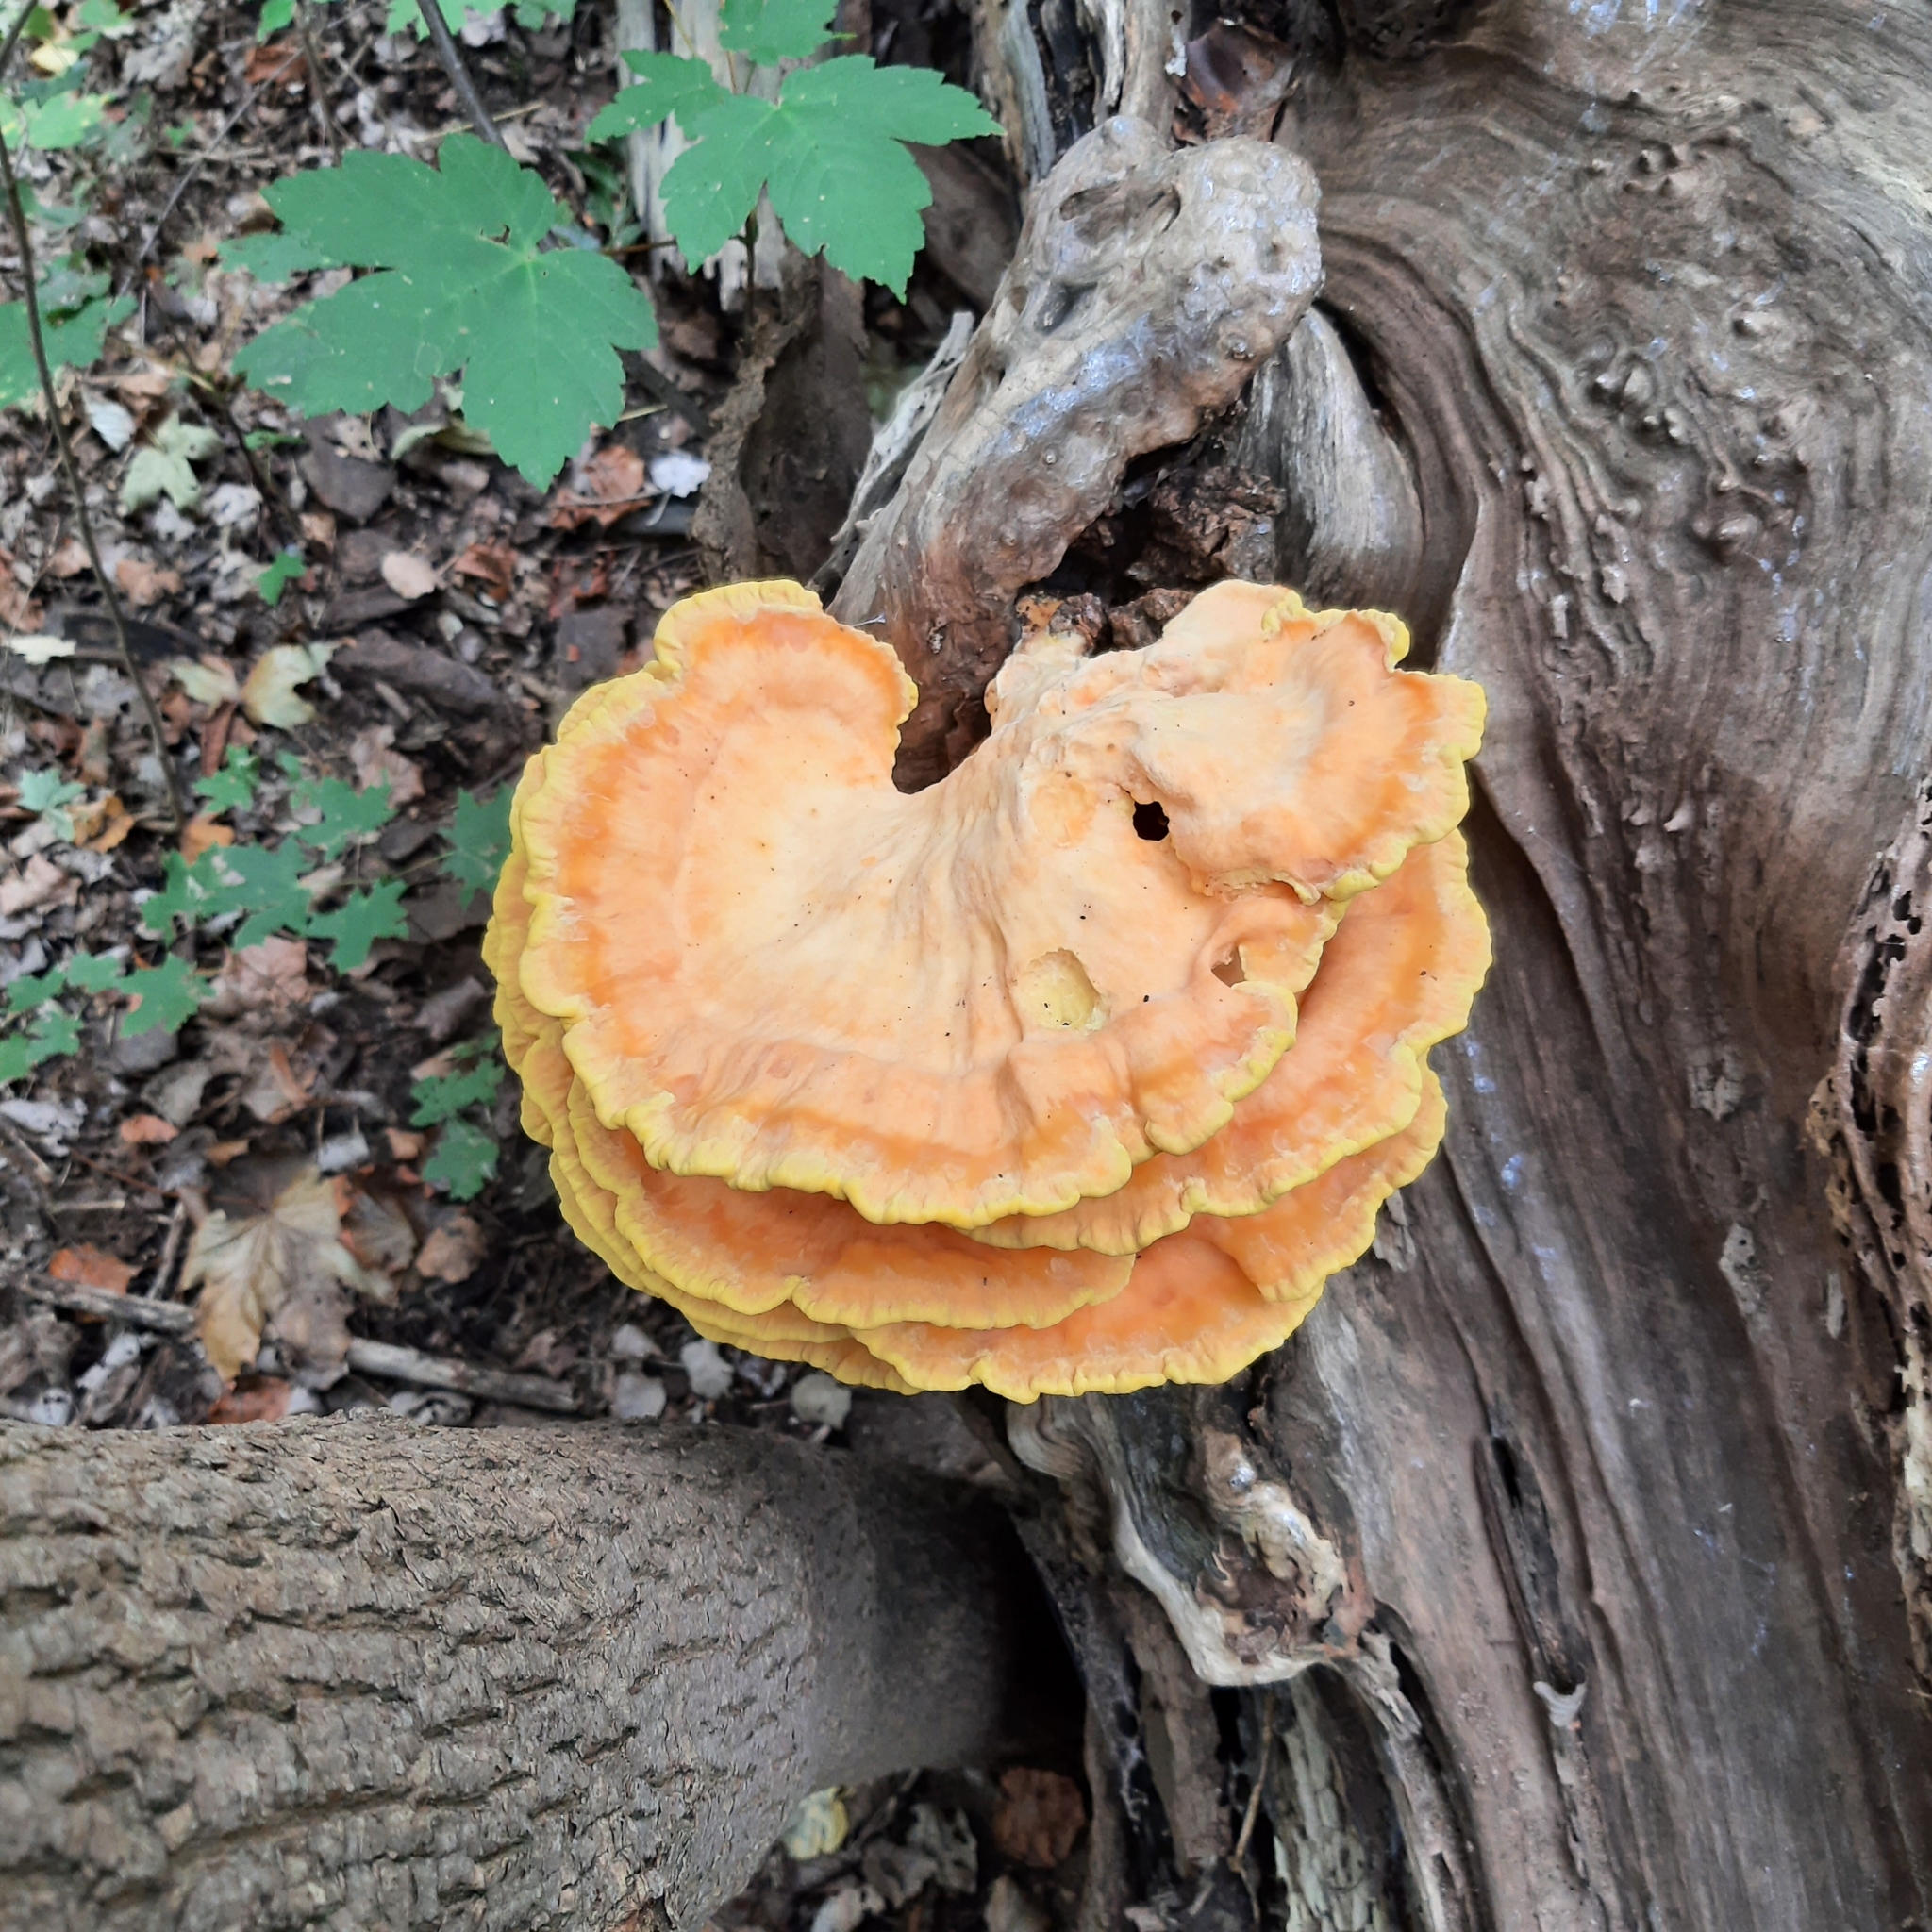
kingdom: Fungi
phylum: Basidiomycota
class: Agaricomycetes
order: Polyporales
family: Laetiporaceae
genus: Laetiporus
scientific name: Laetiporus sulphureus
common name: Chicken of the woods
